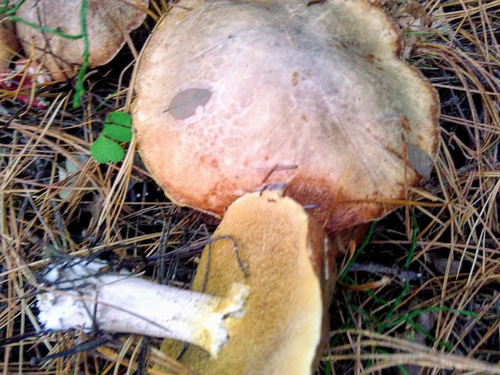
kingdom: Fungi
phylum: Basidiomycota
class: Agaricomycetes
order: Boletales
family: Suillaceae
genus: Suillus
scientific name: Suillus placidus
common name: Slippery white bolete
